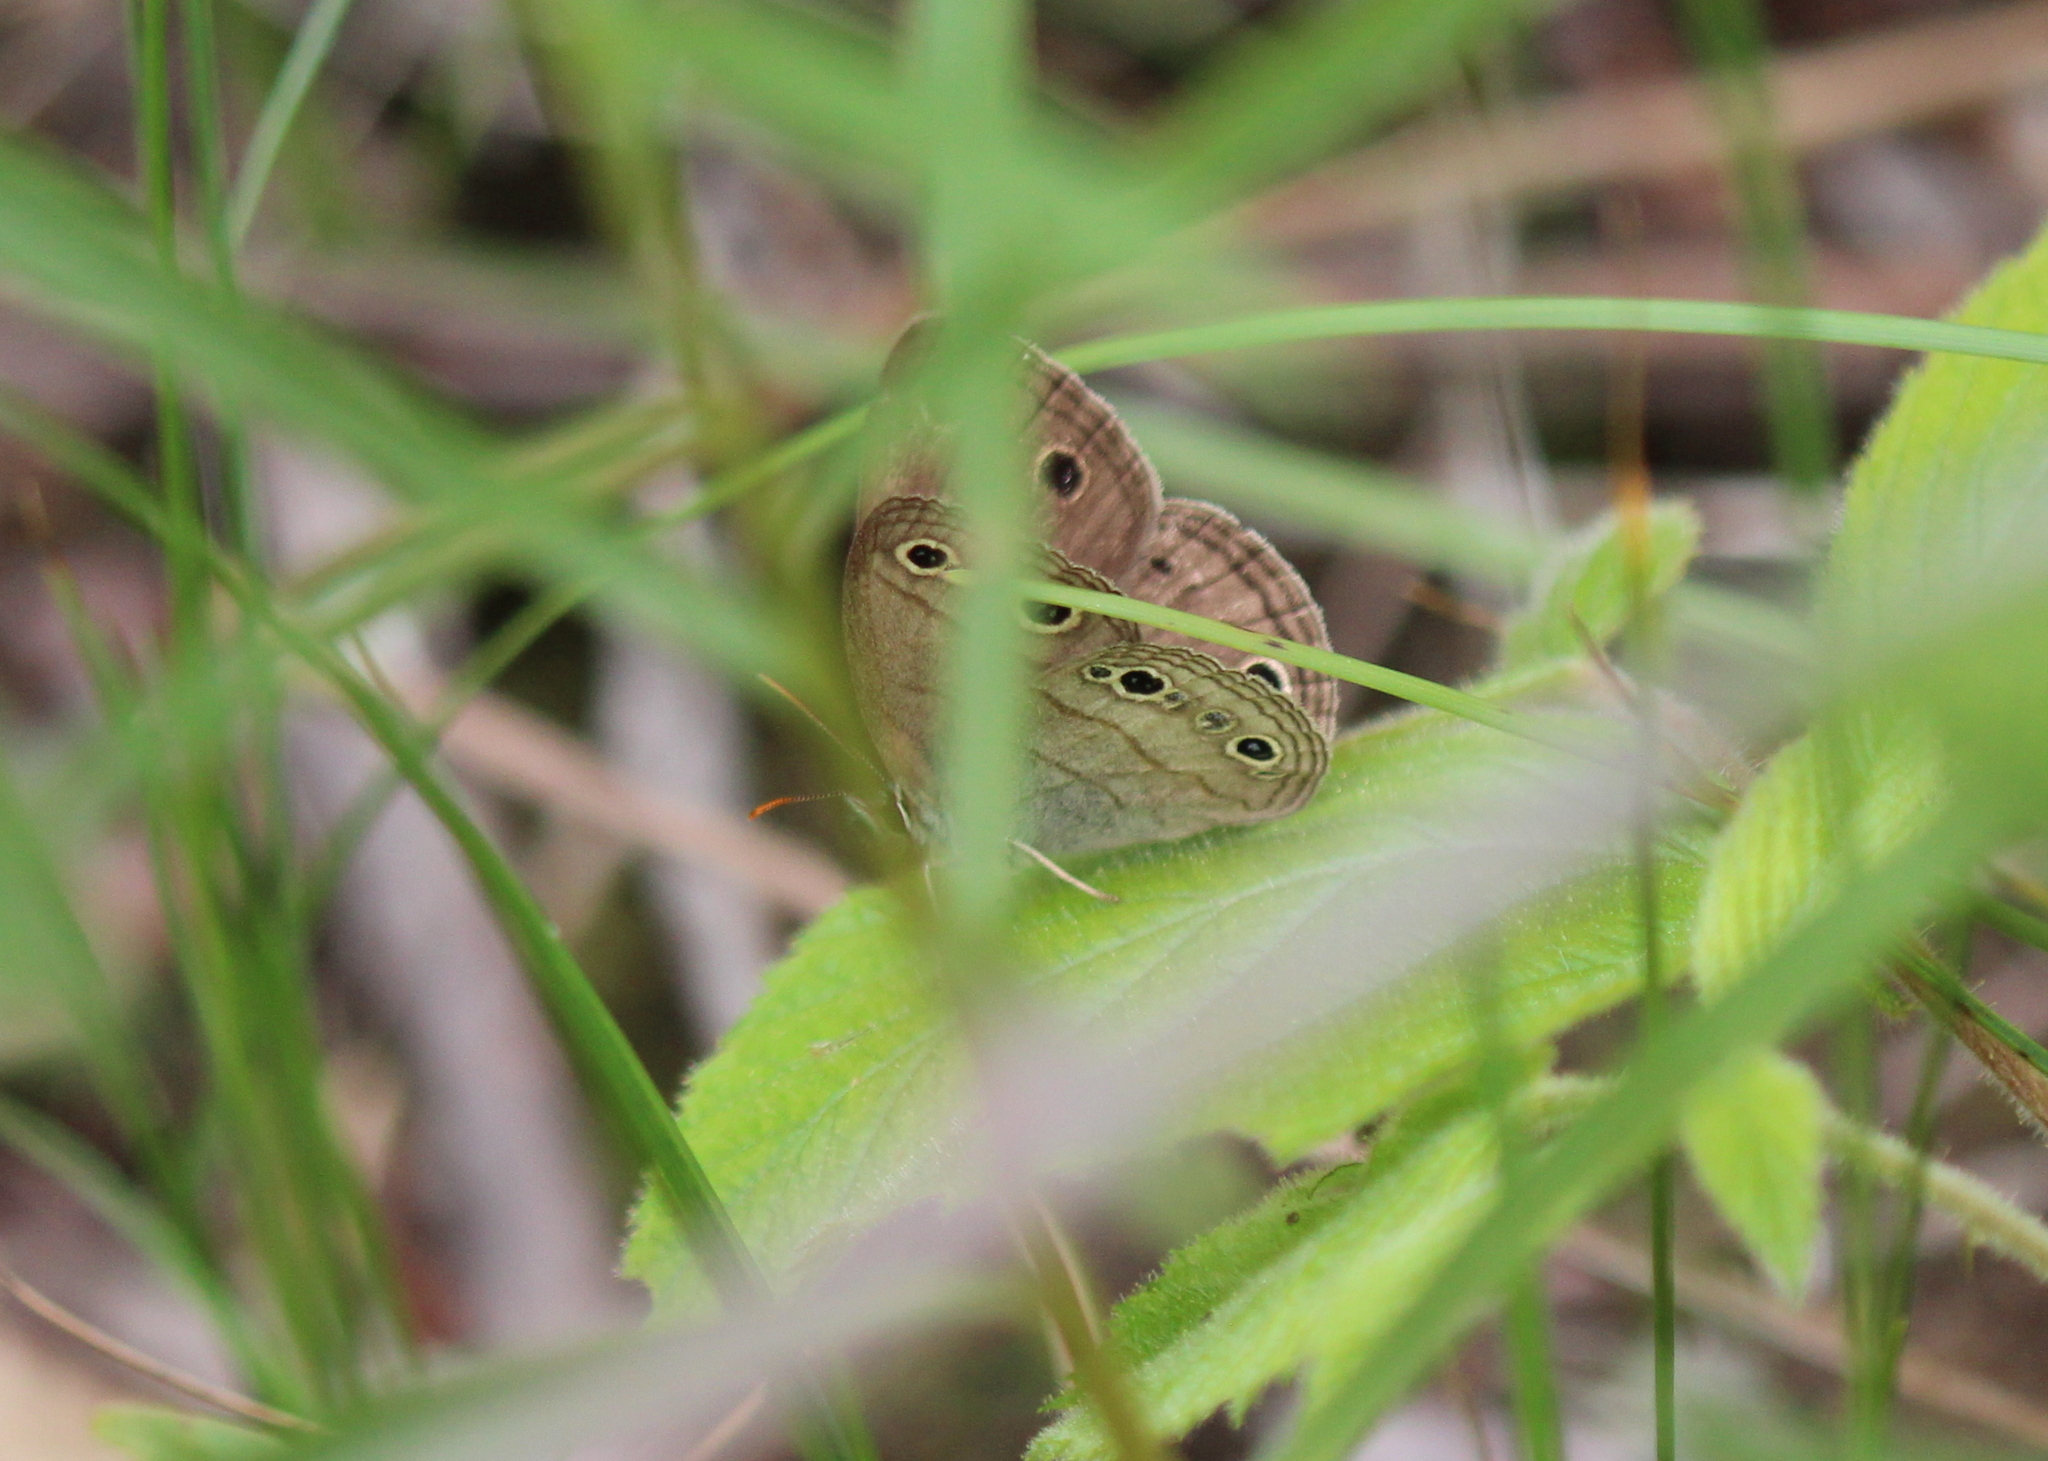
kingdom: Animalia
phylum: Arthropoda
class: Insecta
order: Lepidoptera
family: Nymphalidae
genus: Euptychia
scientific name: Euptychia cymela
